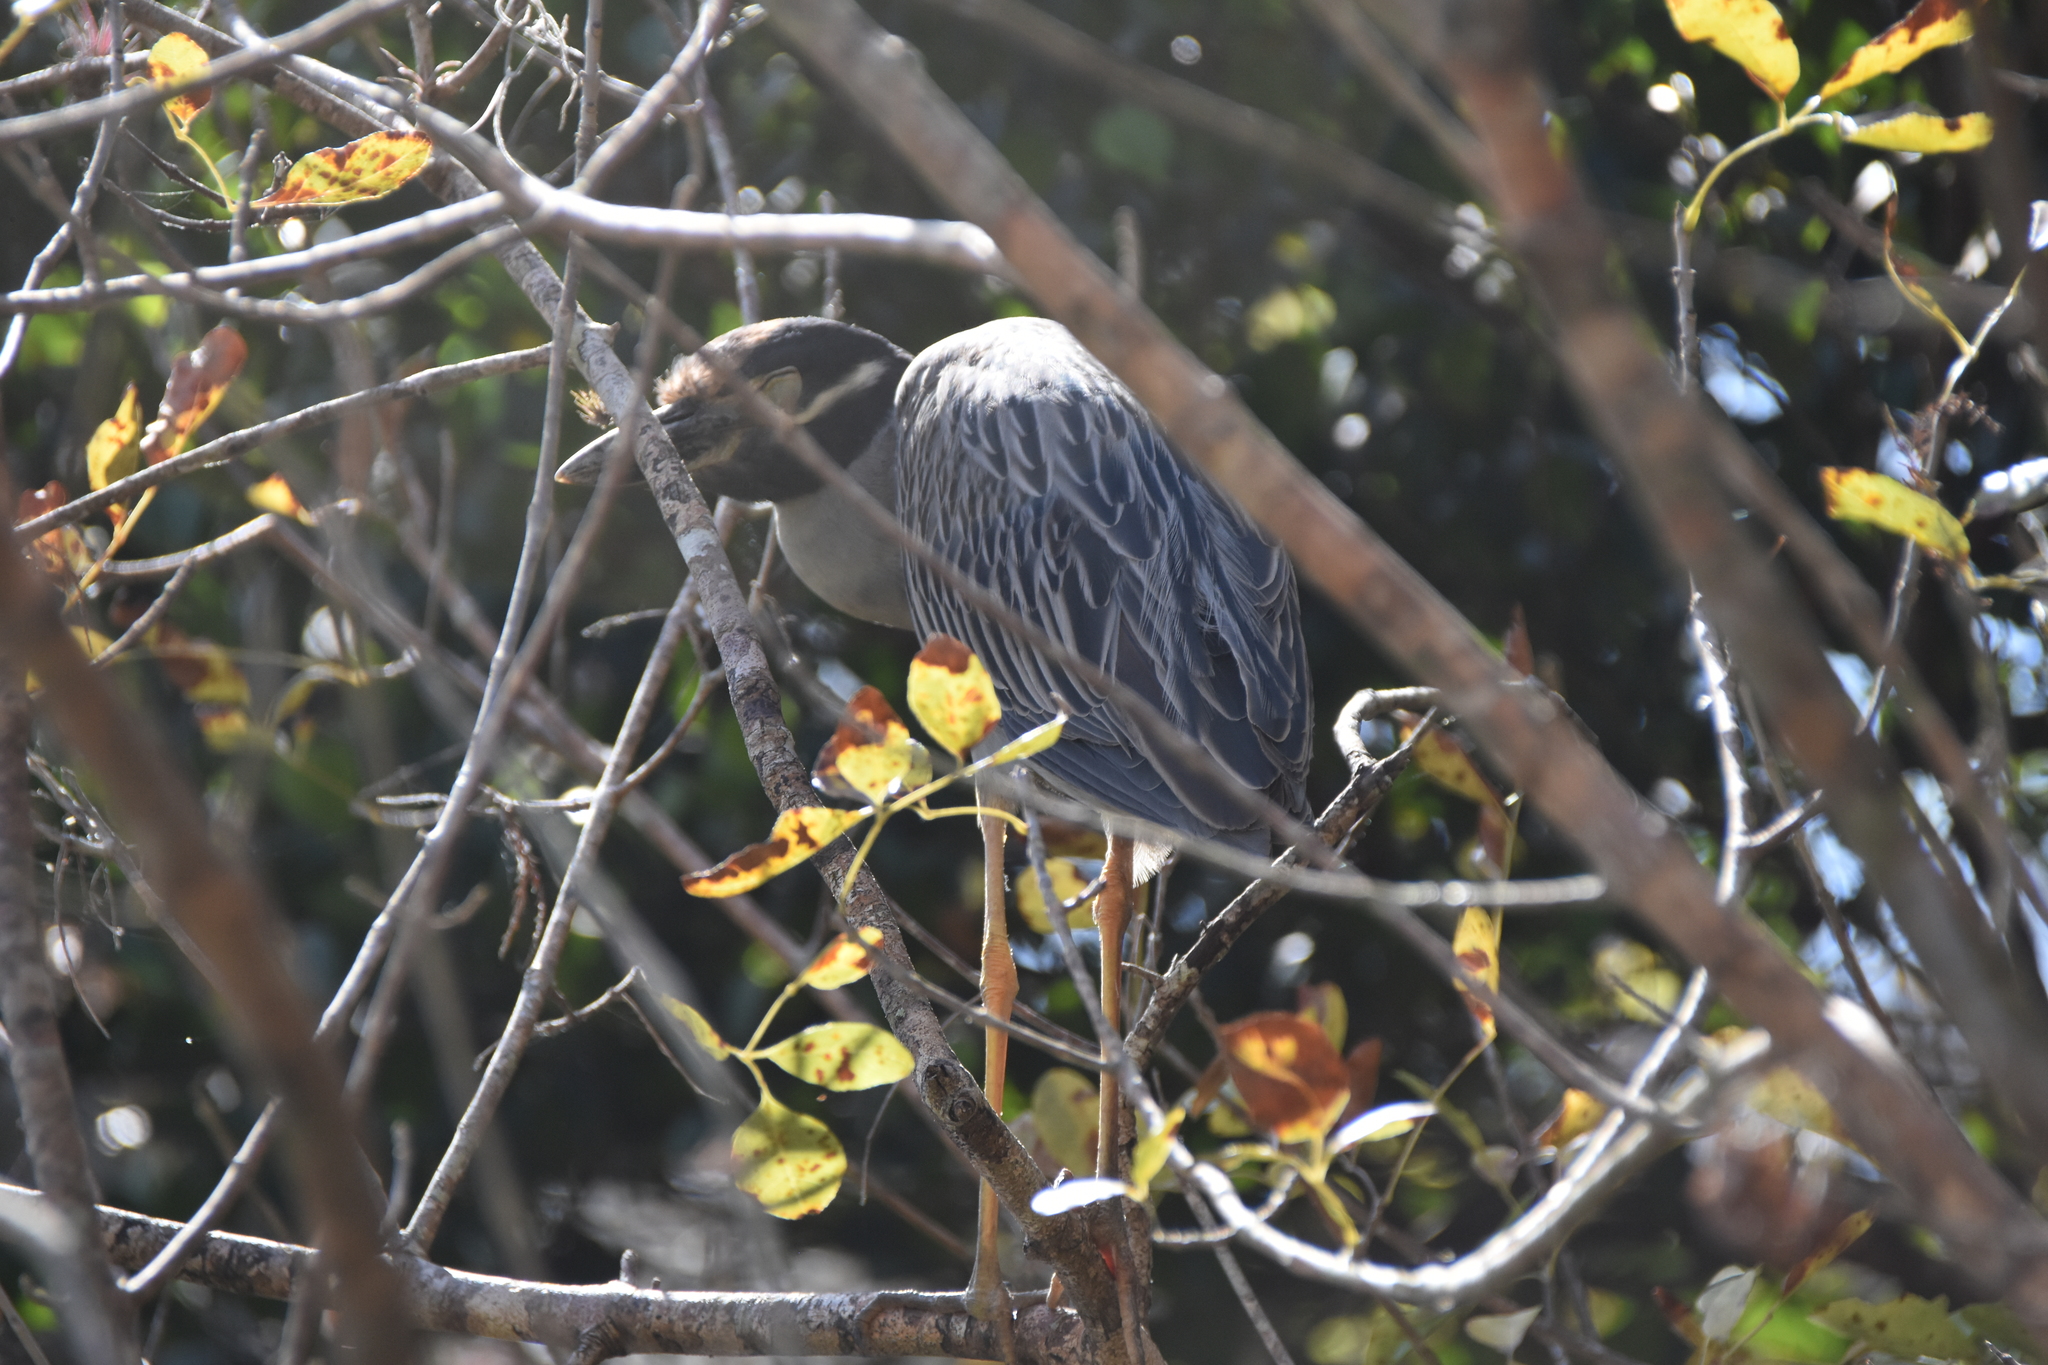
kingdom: Animalia
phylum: Chordata
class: Aves
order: Pelecaniformes
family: Ardeidae
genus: Nyctanassa
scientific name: Nyctanassa violacea
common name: Yellow-crowned night heron
